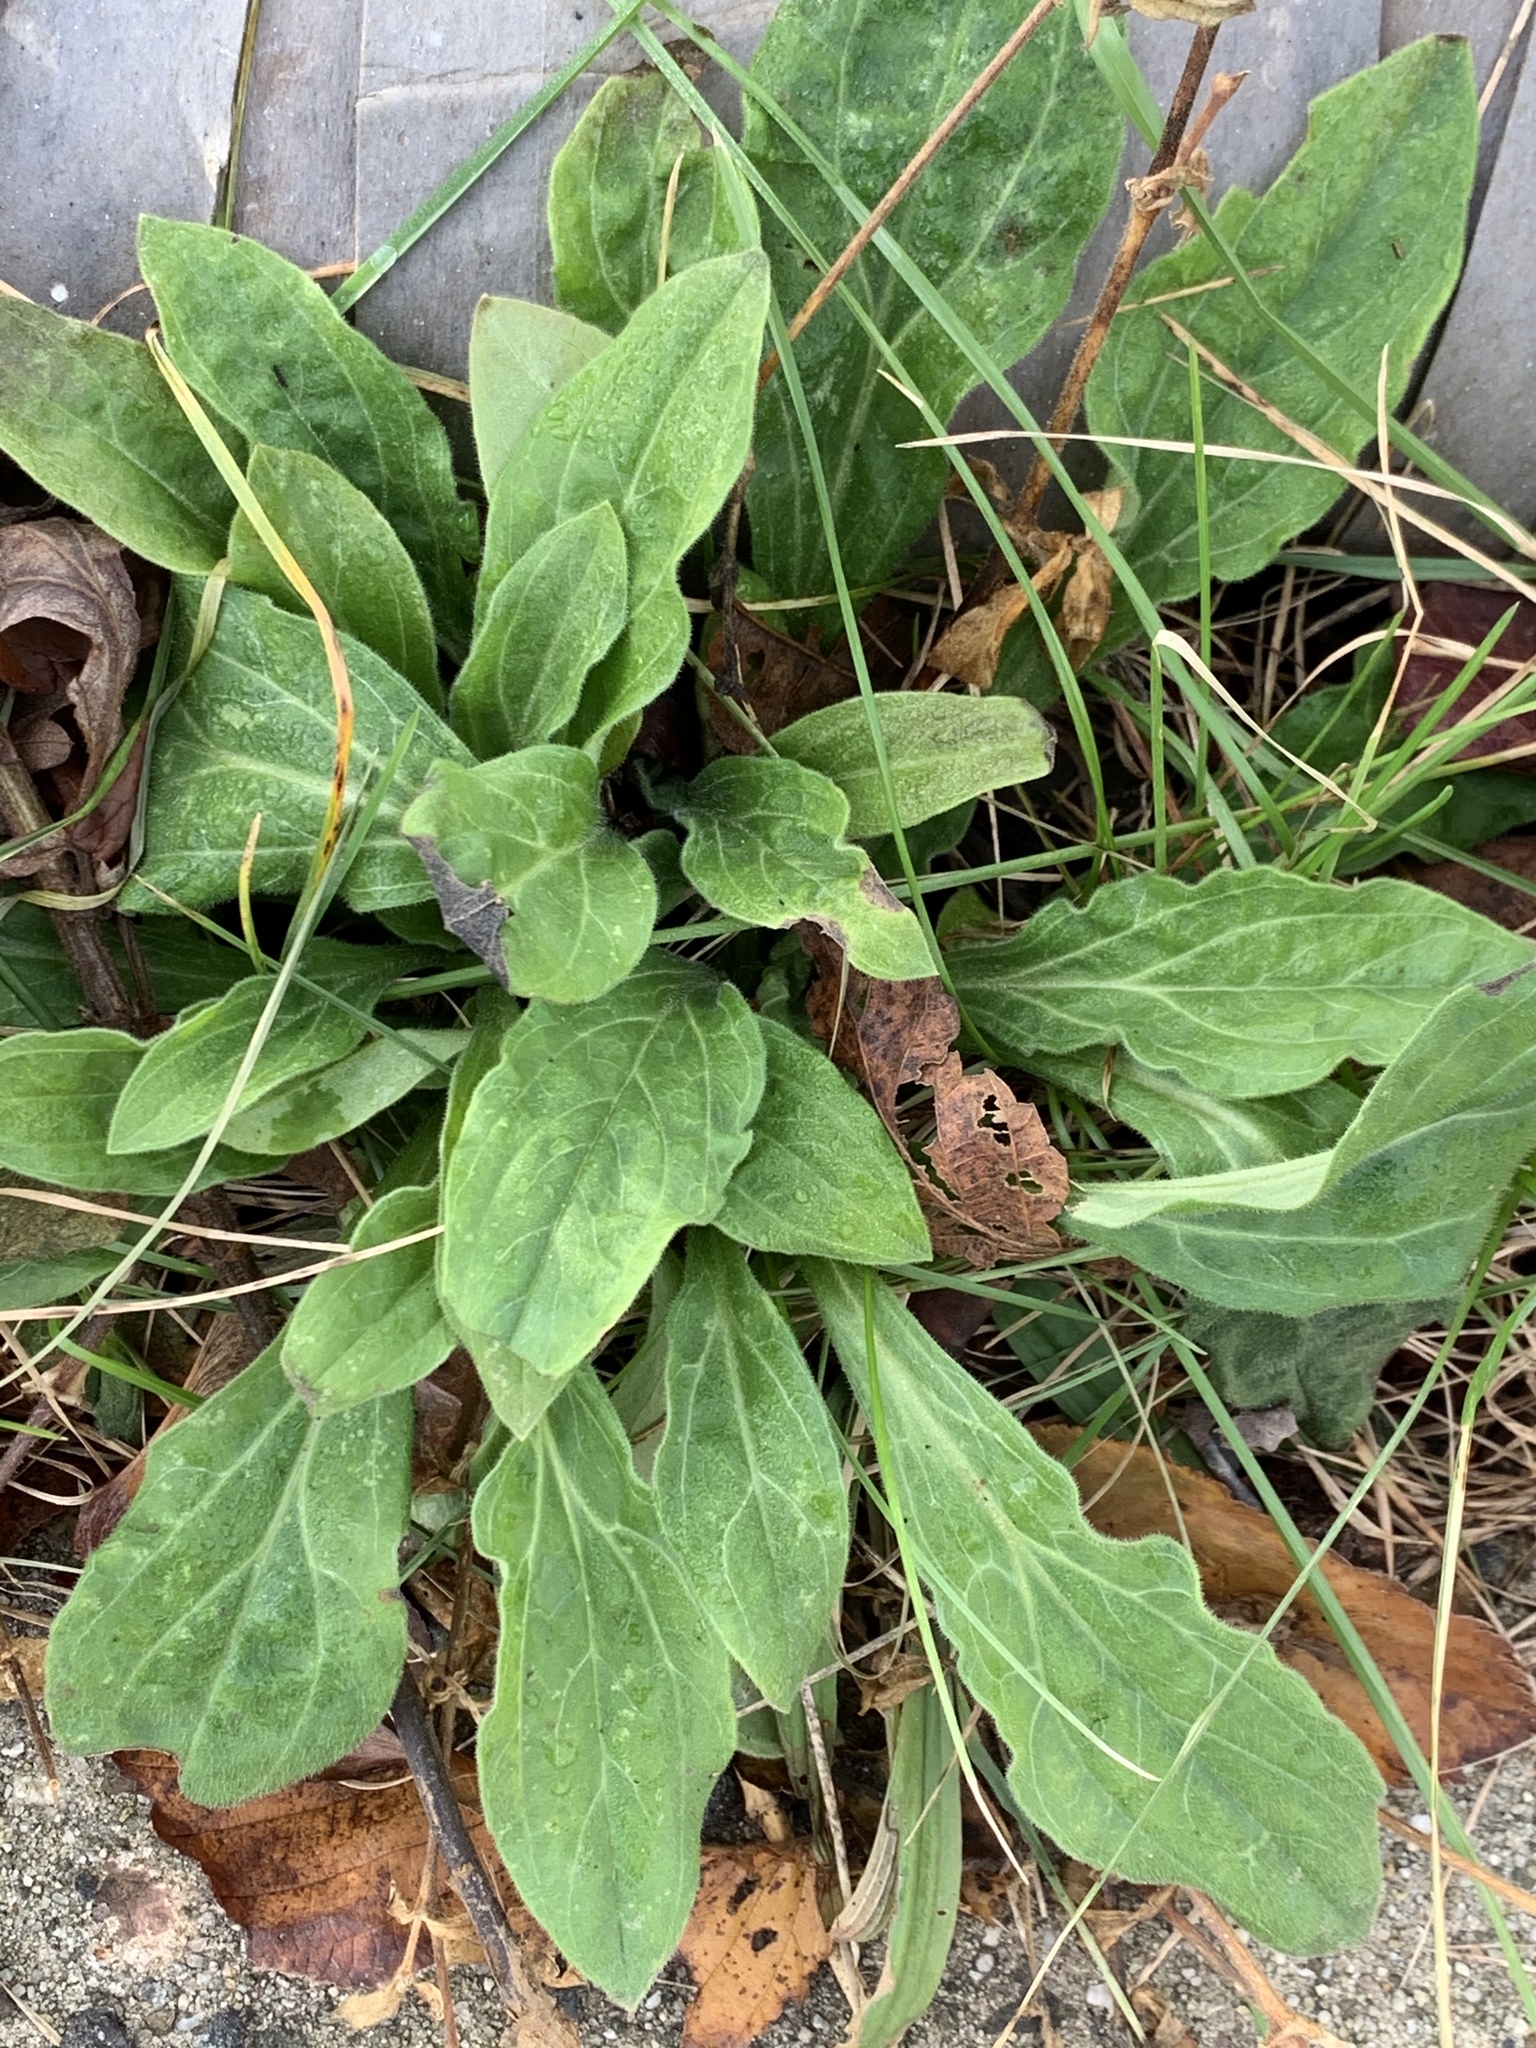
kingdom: Plantae
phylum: Tracheophyta
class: Magnoliopsida
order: Caryophyllales
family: Caryophyllaceae
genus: Silene
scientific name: Silene latifolia
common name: White campion
